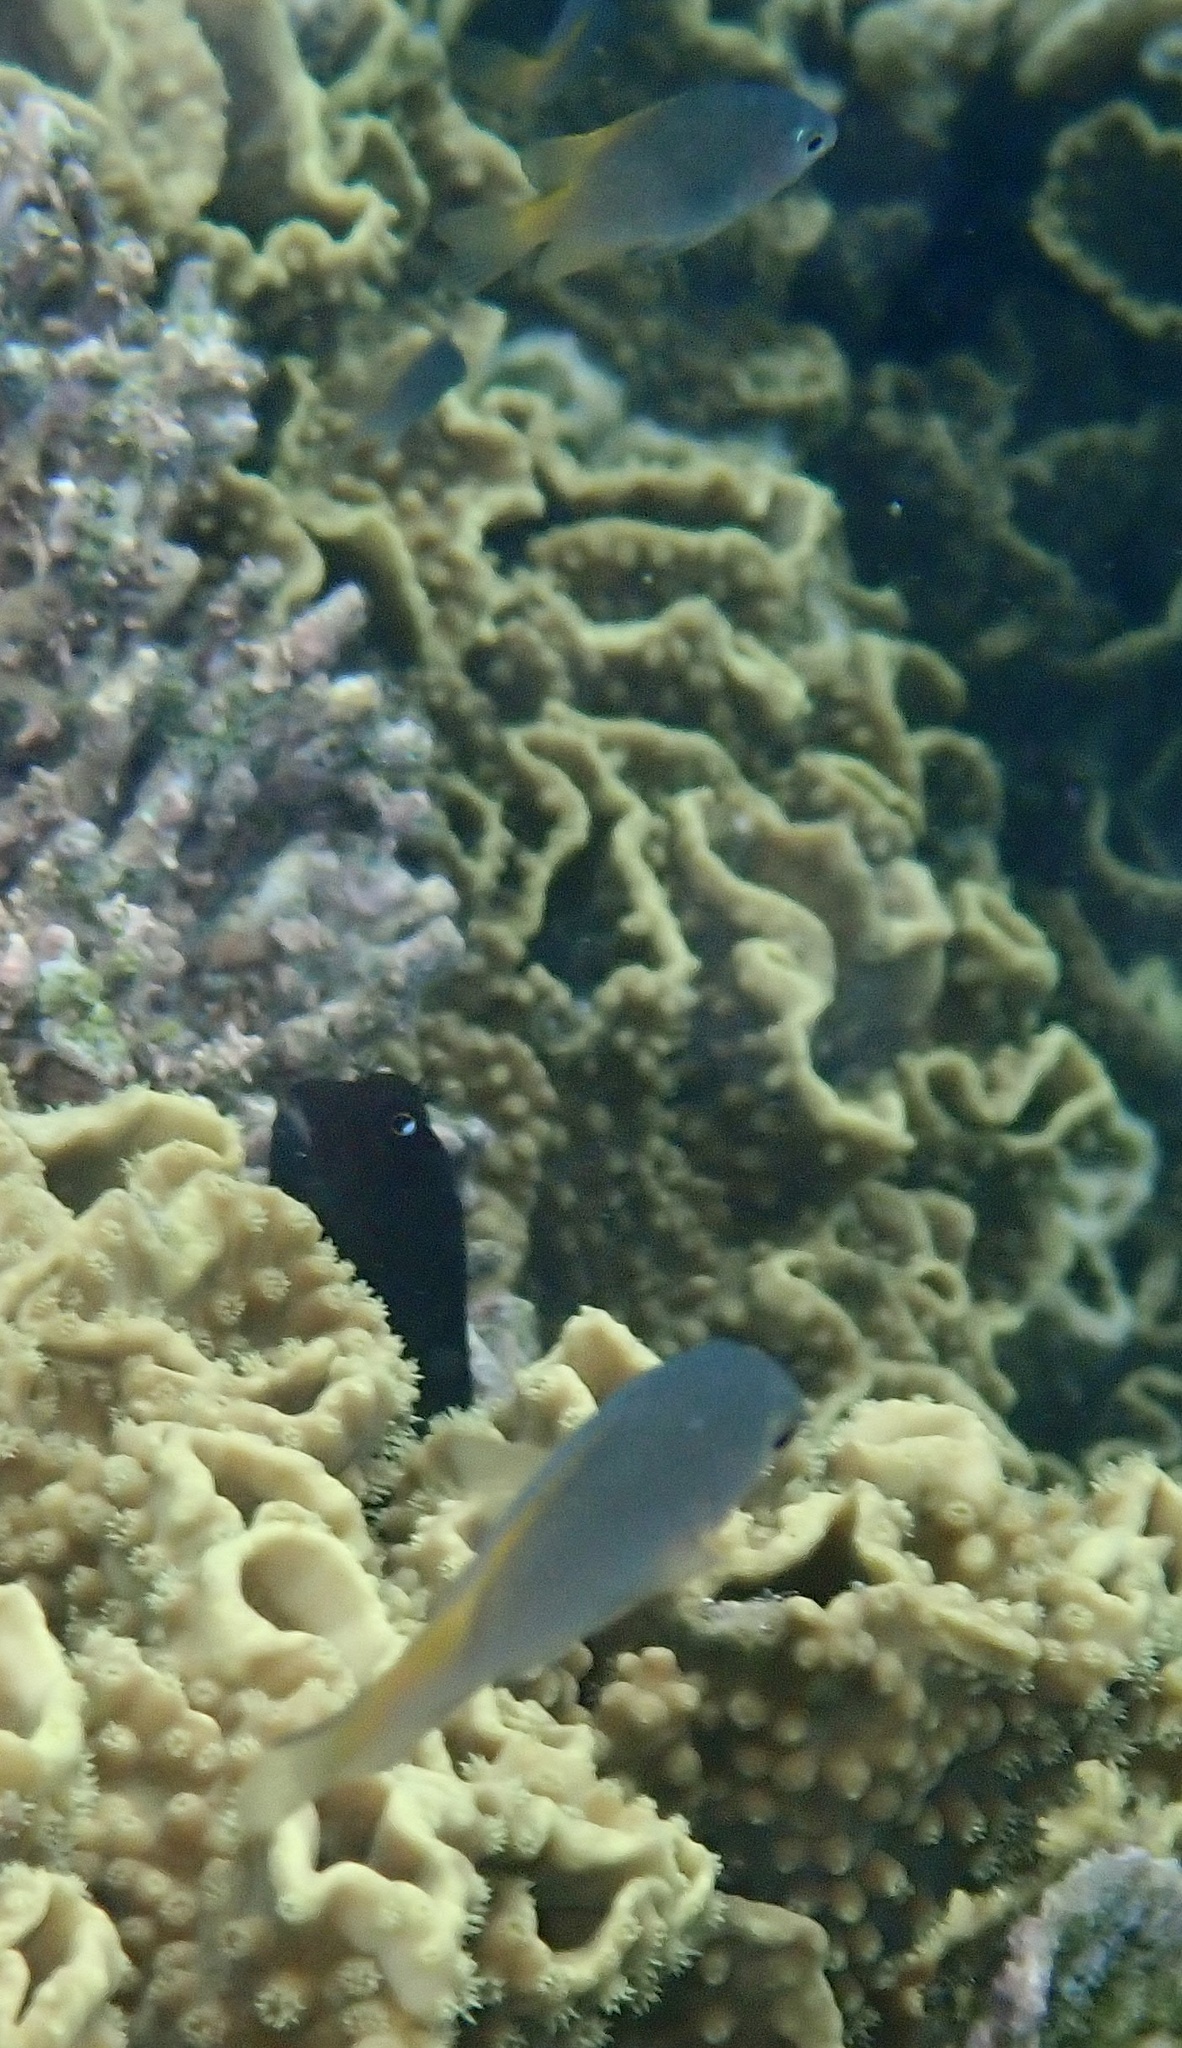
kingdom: Animalia
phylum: Chordata
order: Perciformes
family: Pomacentridae
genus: Pomacentrus
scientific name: Pomacentrus lepidogenys
